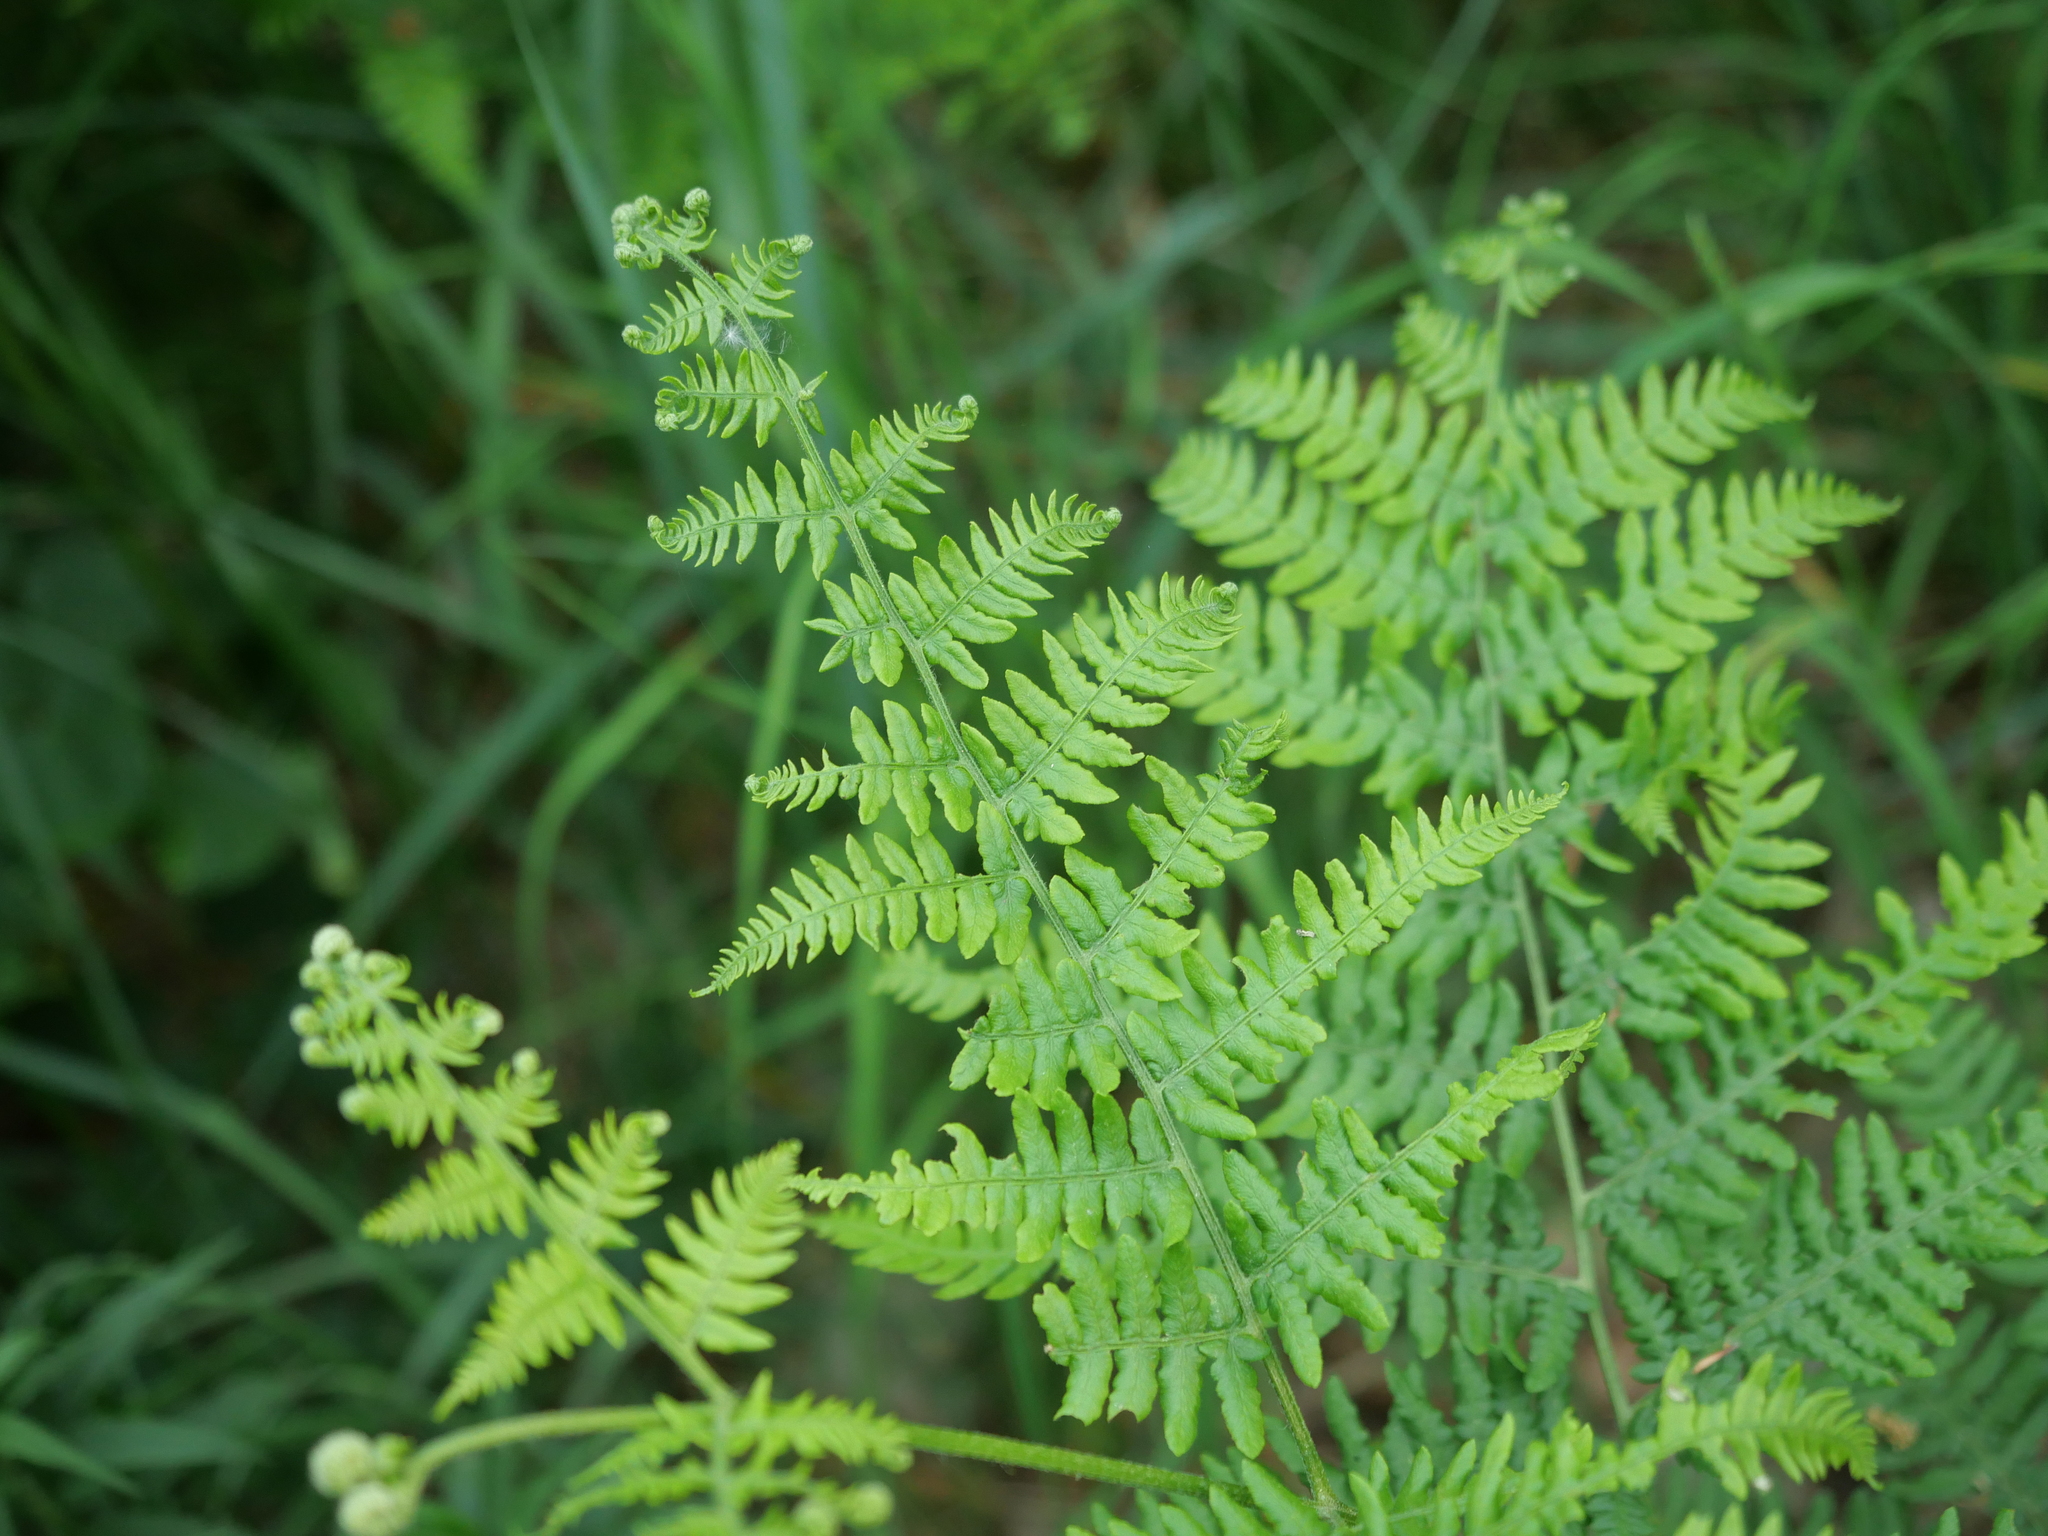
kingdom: Plantae
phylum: Tracheophyta
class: Polypodiopsida
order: Polypodiales
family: Dennstaedtiaceae
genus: Pteridium
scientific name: Pteridium aquilinum
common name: Bracken
